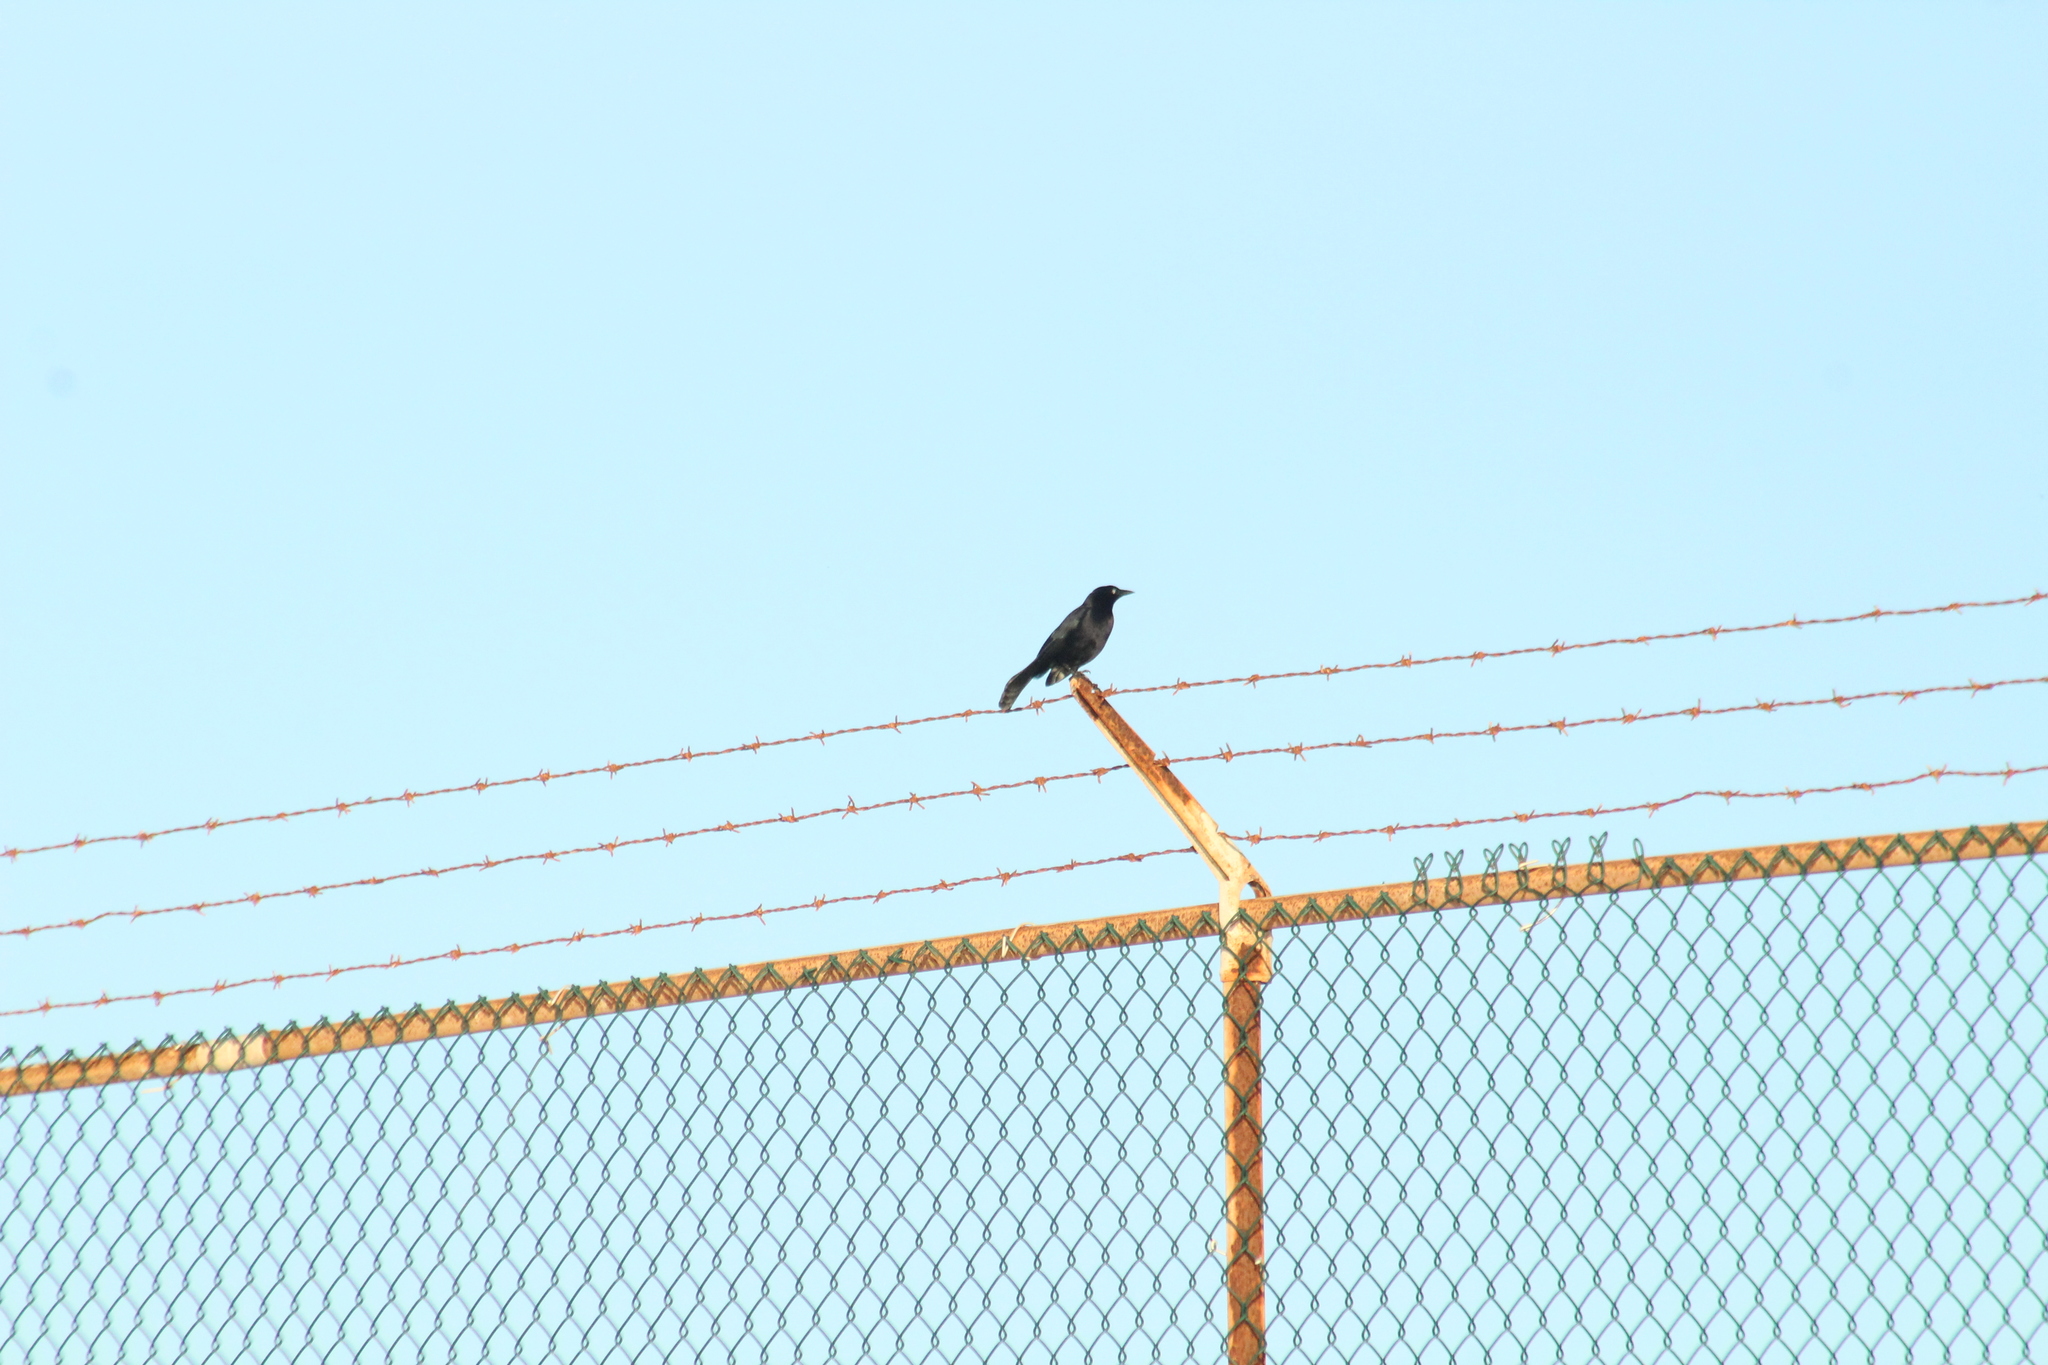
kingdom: Animalia
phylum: Chordata
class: Aves
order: Passeriformes
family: Icteridae
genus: Quiscalus
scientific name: Quiscalus lugubris
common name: Carib grackle
